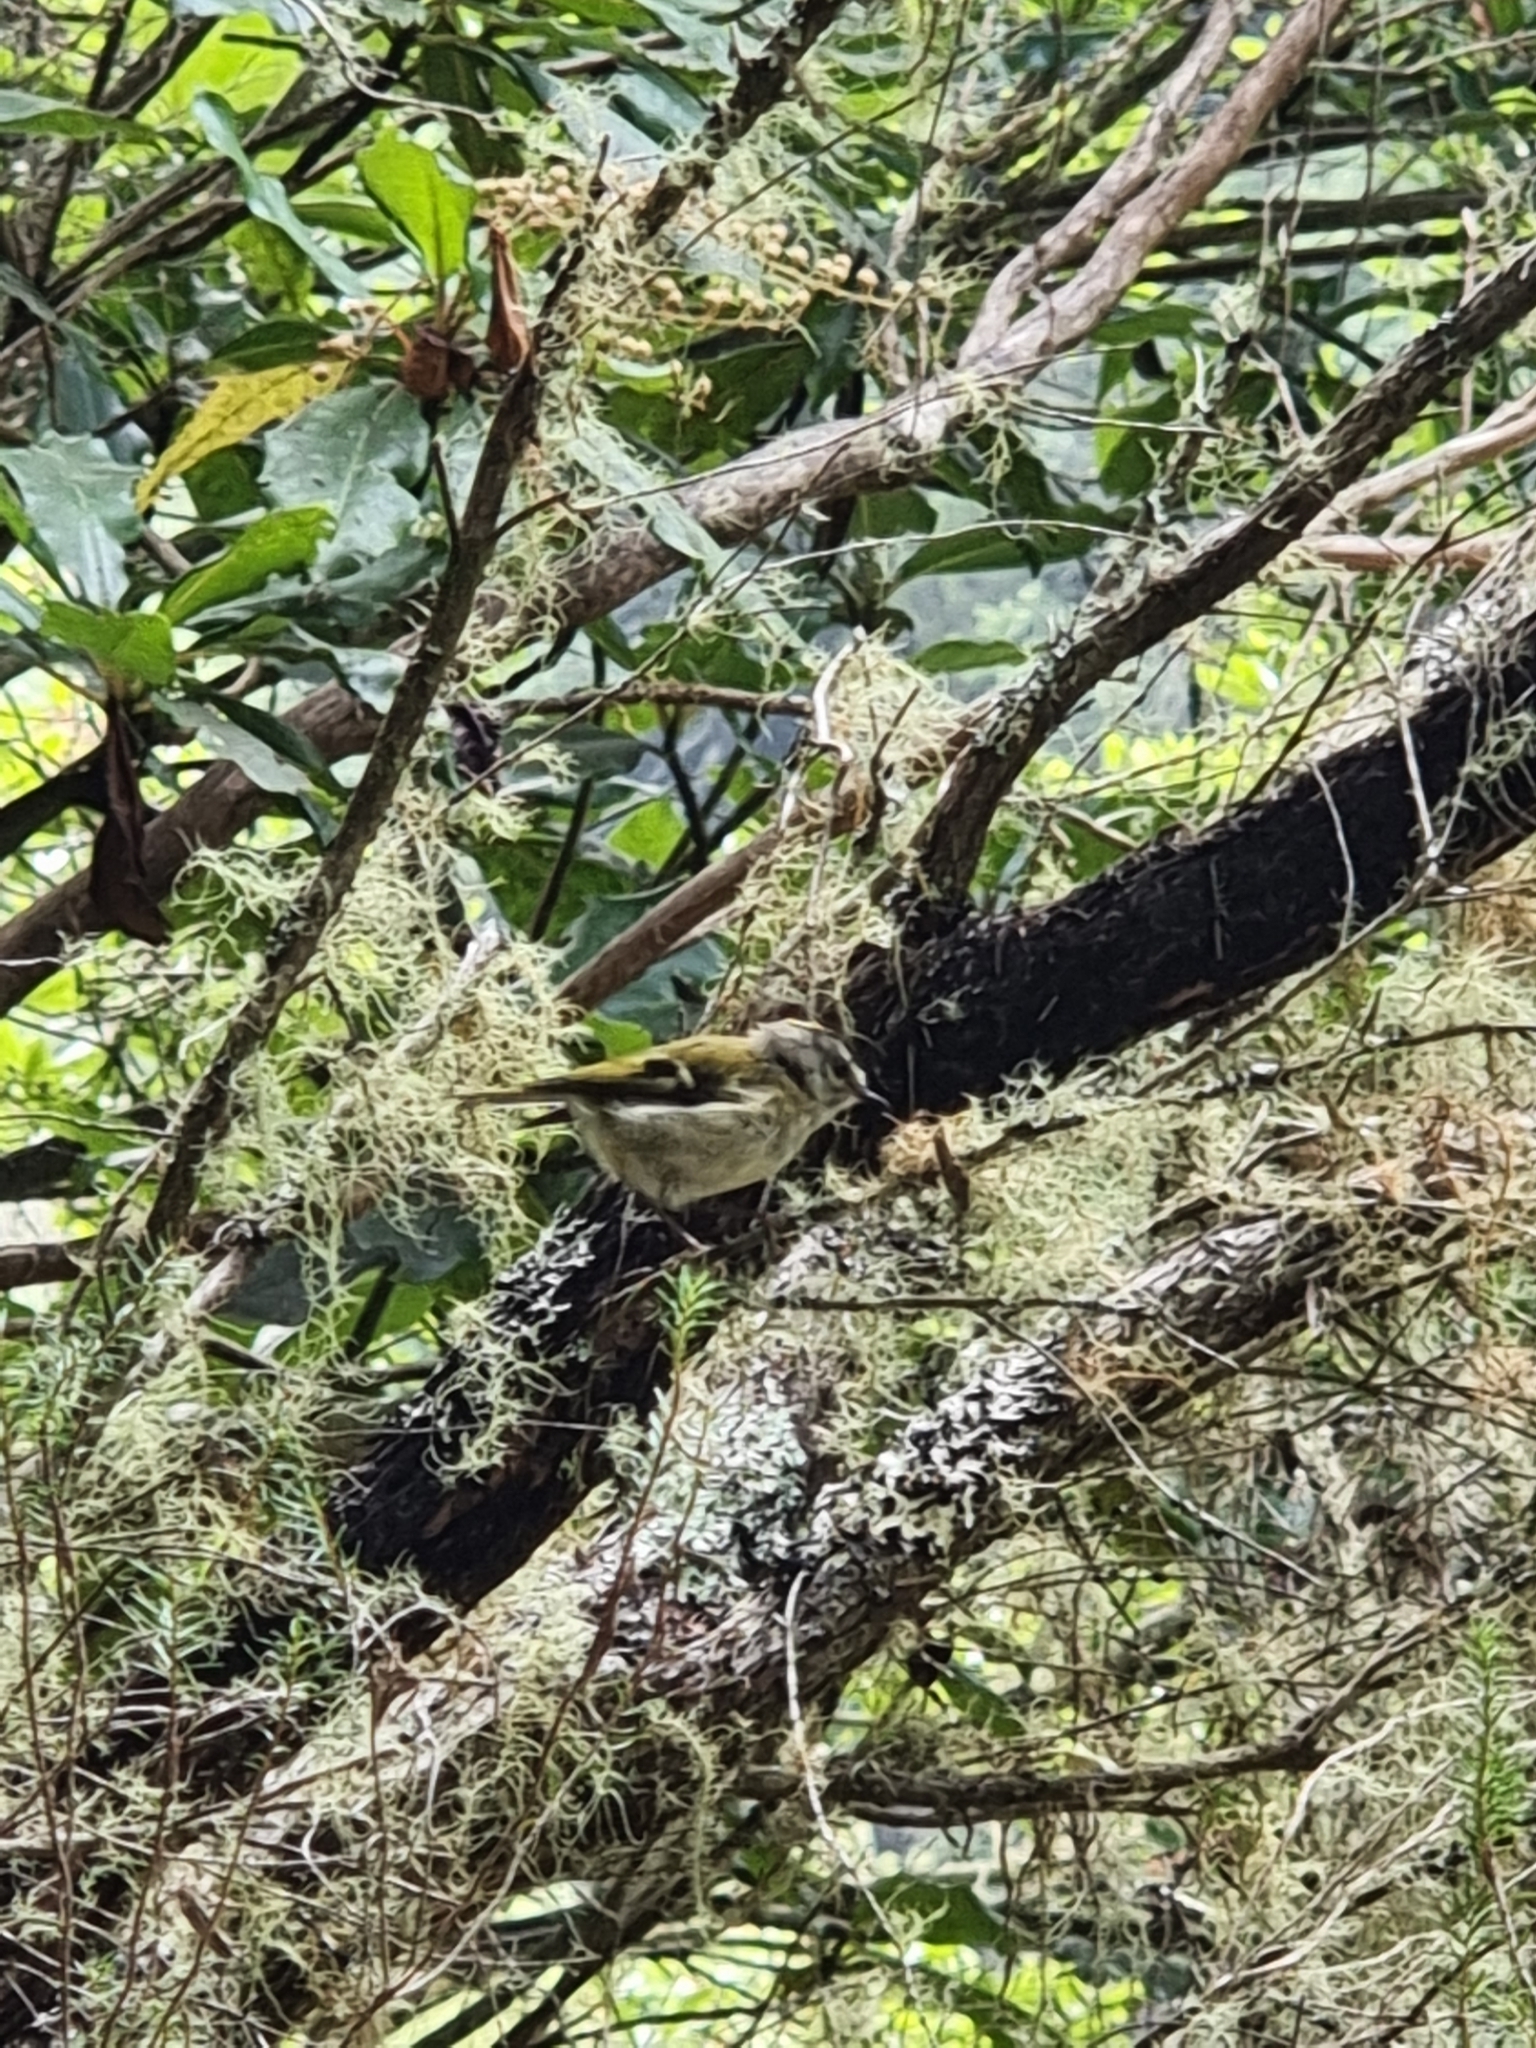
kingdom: Animalia
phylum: Chordata
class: Aves
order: Passeriformes
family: Regulidae
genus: Regulus
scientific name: Regulus madeirensis
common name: Madeira firecrest
